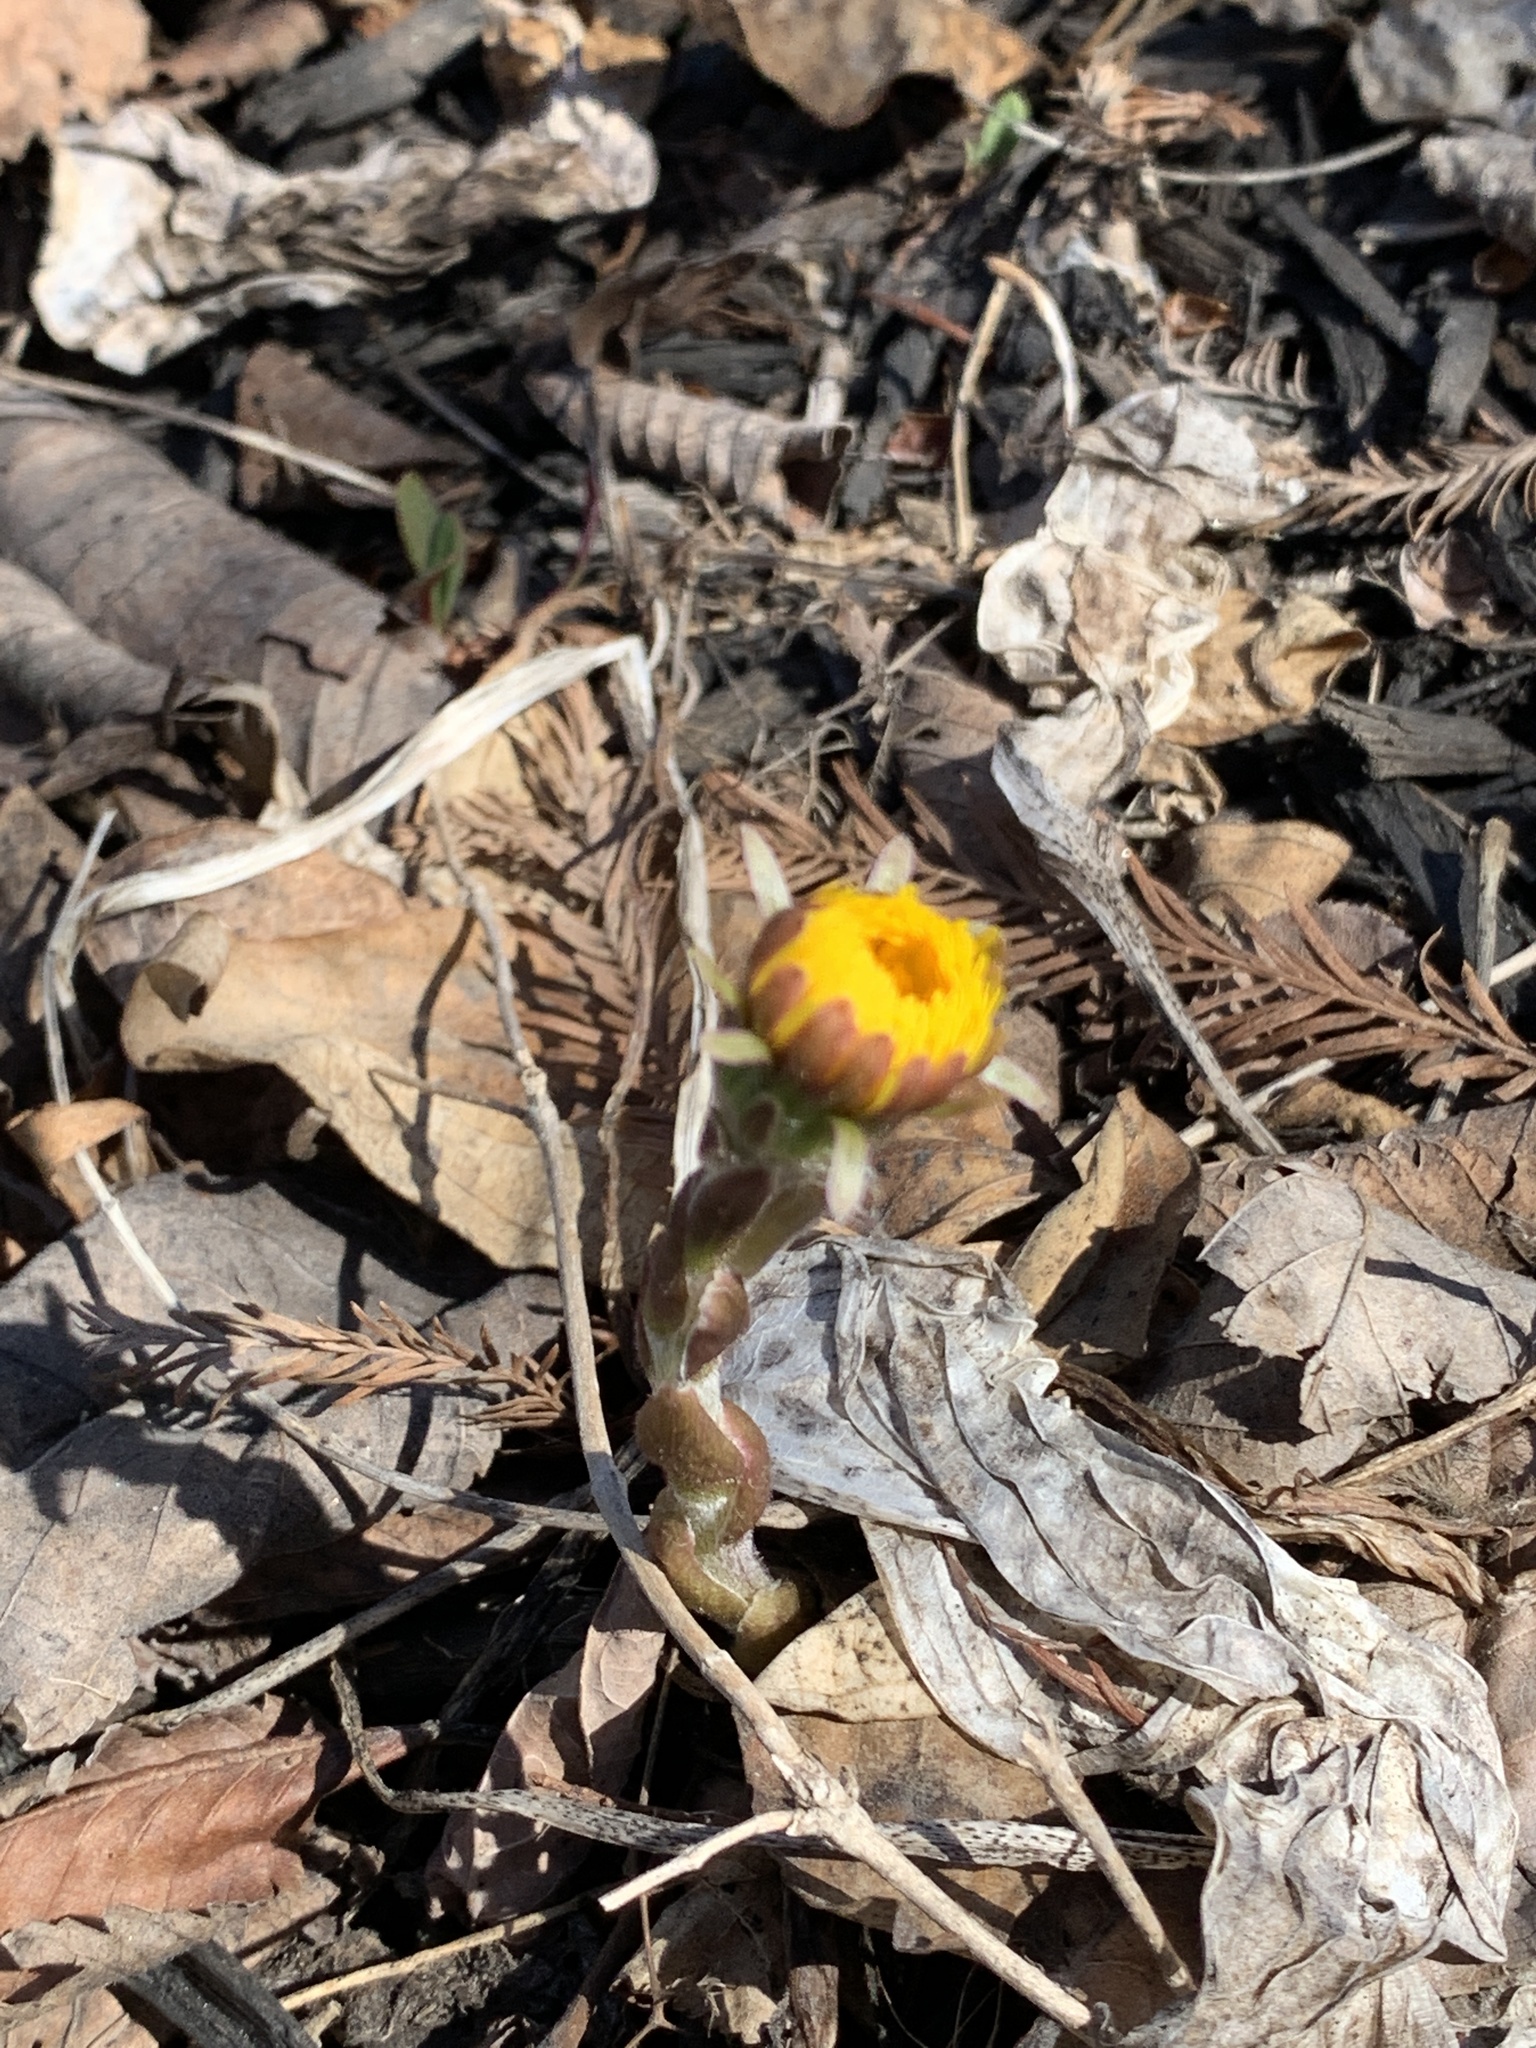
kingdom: Plantae
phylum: Tracheophyta
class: Magnoliopsida
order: Asterales
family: Asteraceae
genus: Tussilago
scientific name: Tussilago farfara
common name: Coltsfoot
